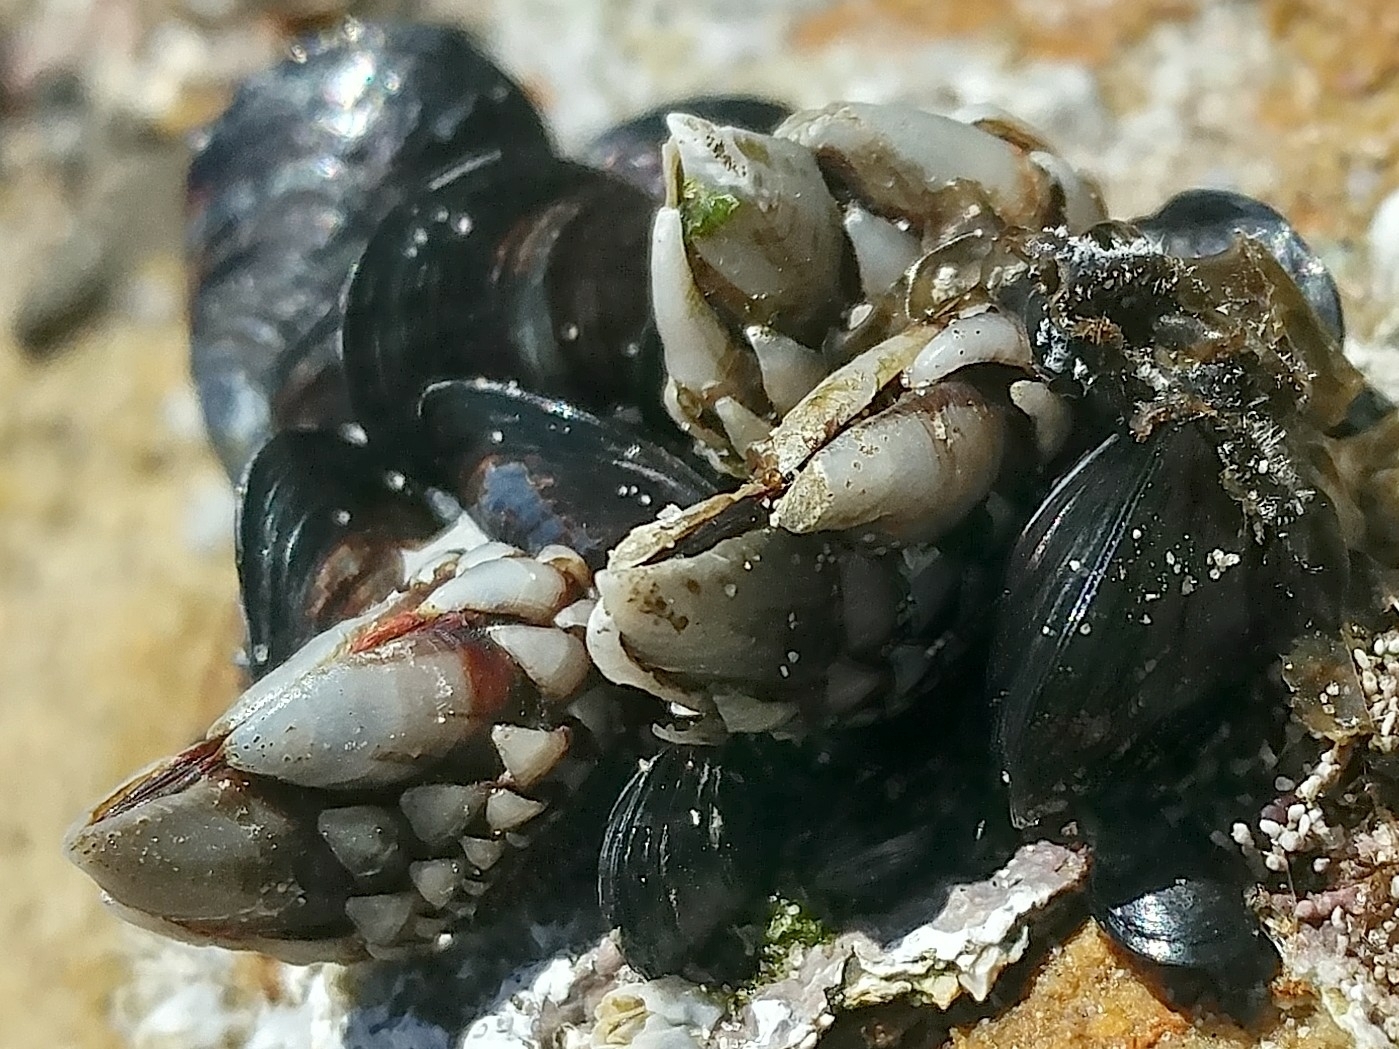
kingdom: Animalia
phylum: Arthropoda
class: Maxillopoda
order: Pedunculata
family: Pollicipedidae
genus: Pollicipes
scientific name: Pollicipes polymerus
